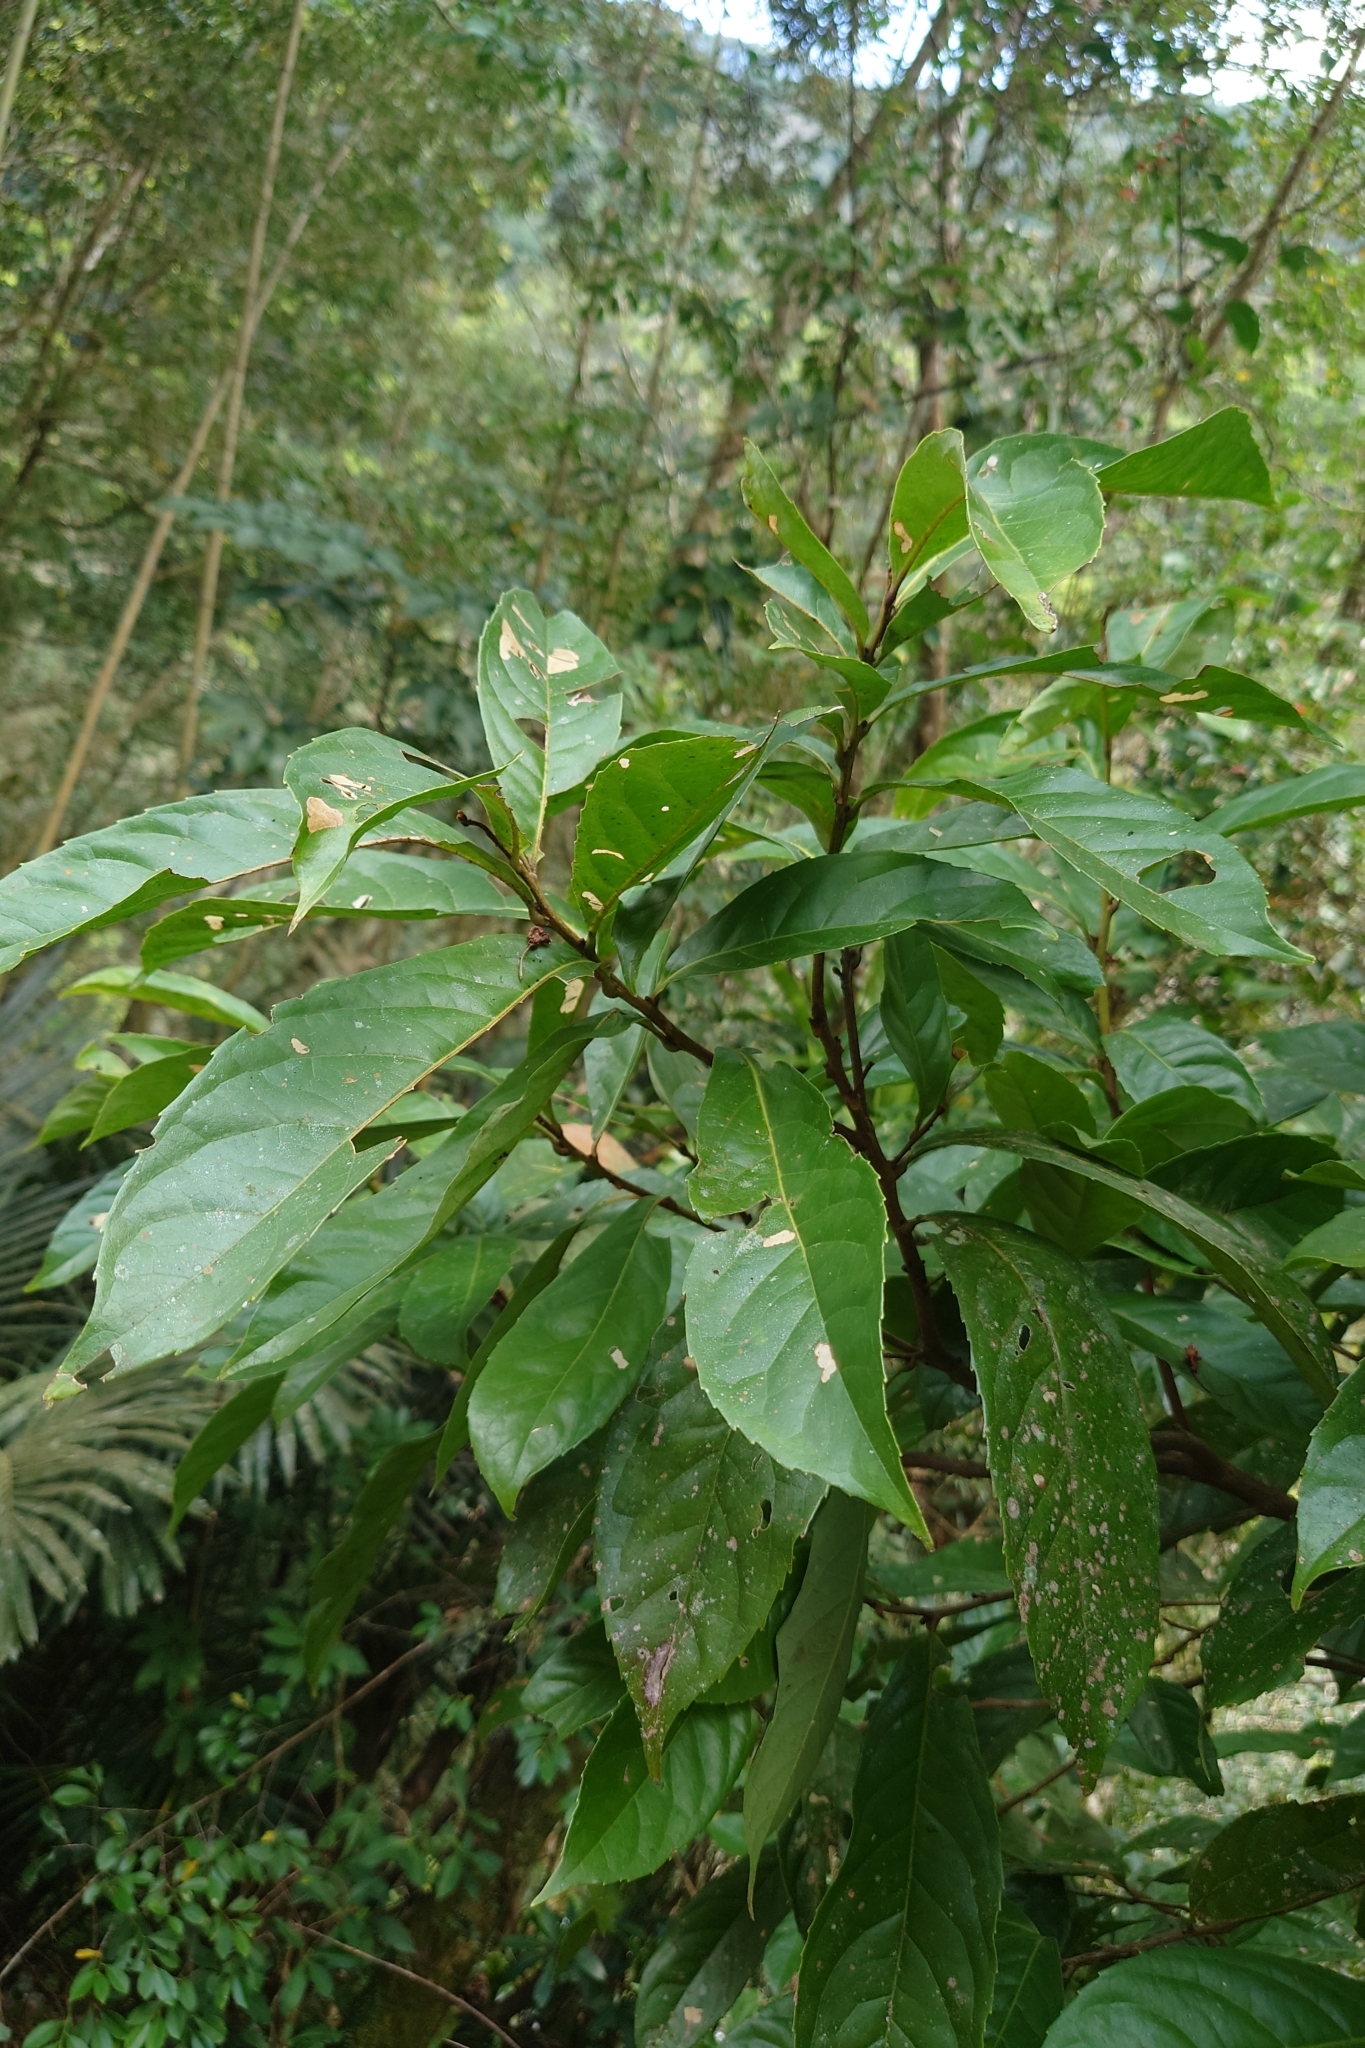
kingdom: Plantae
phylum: Tracheophyta
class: Magnoliopsida
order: Proteales
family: Proteaceae
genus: Helicia
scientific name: Helicia formosana
